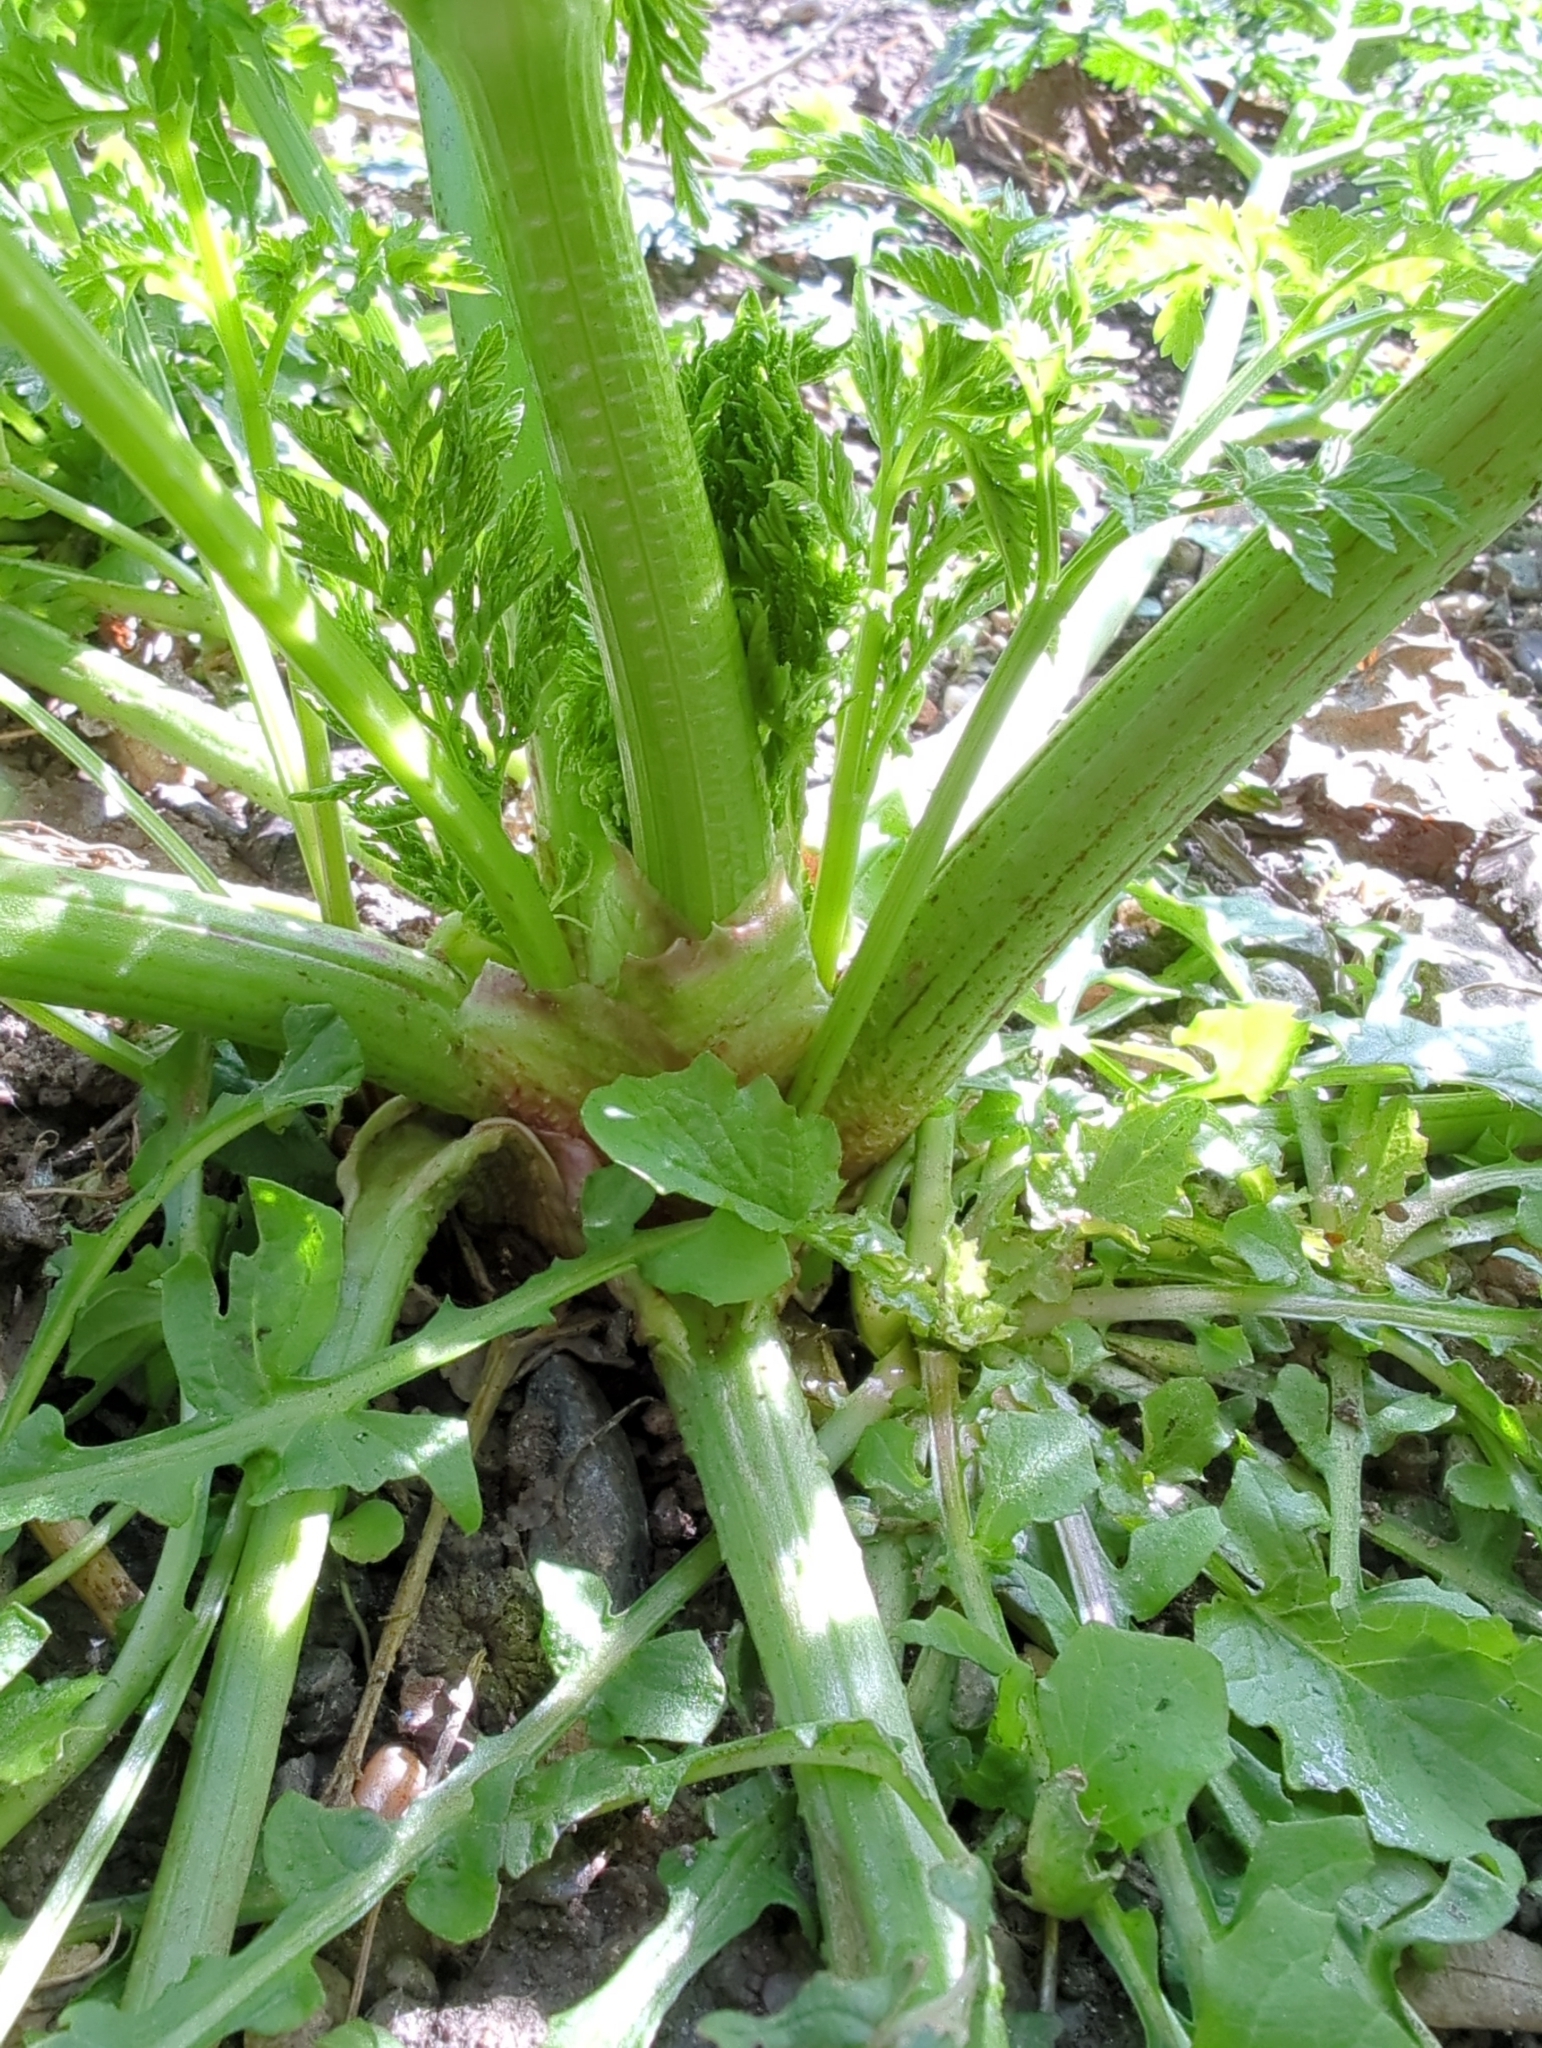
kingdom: Plantae
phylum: Tracheophyta
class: Magnoliopsida
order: Apiales
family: Apiaceae
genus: Conium
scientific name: Conium maculatum
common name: Hemlock
